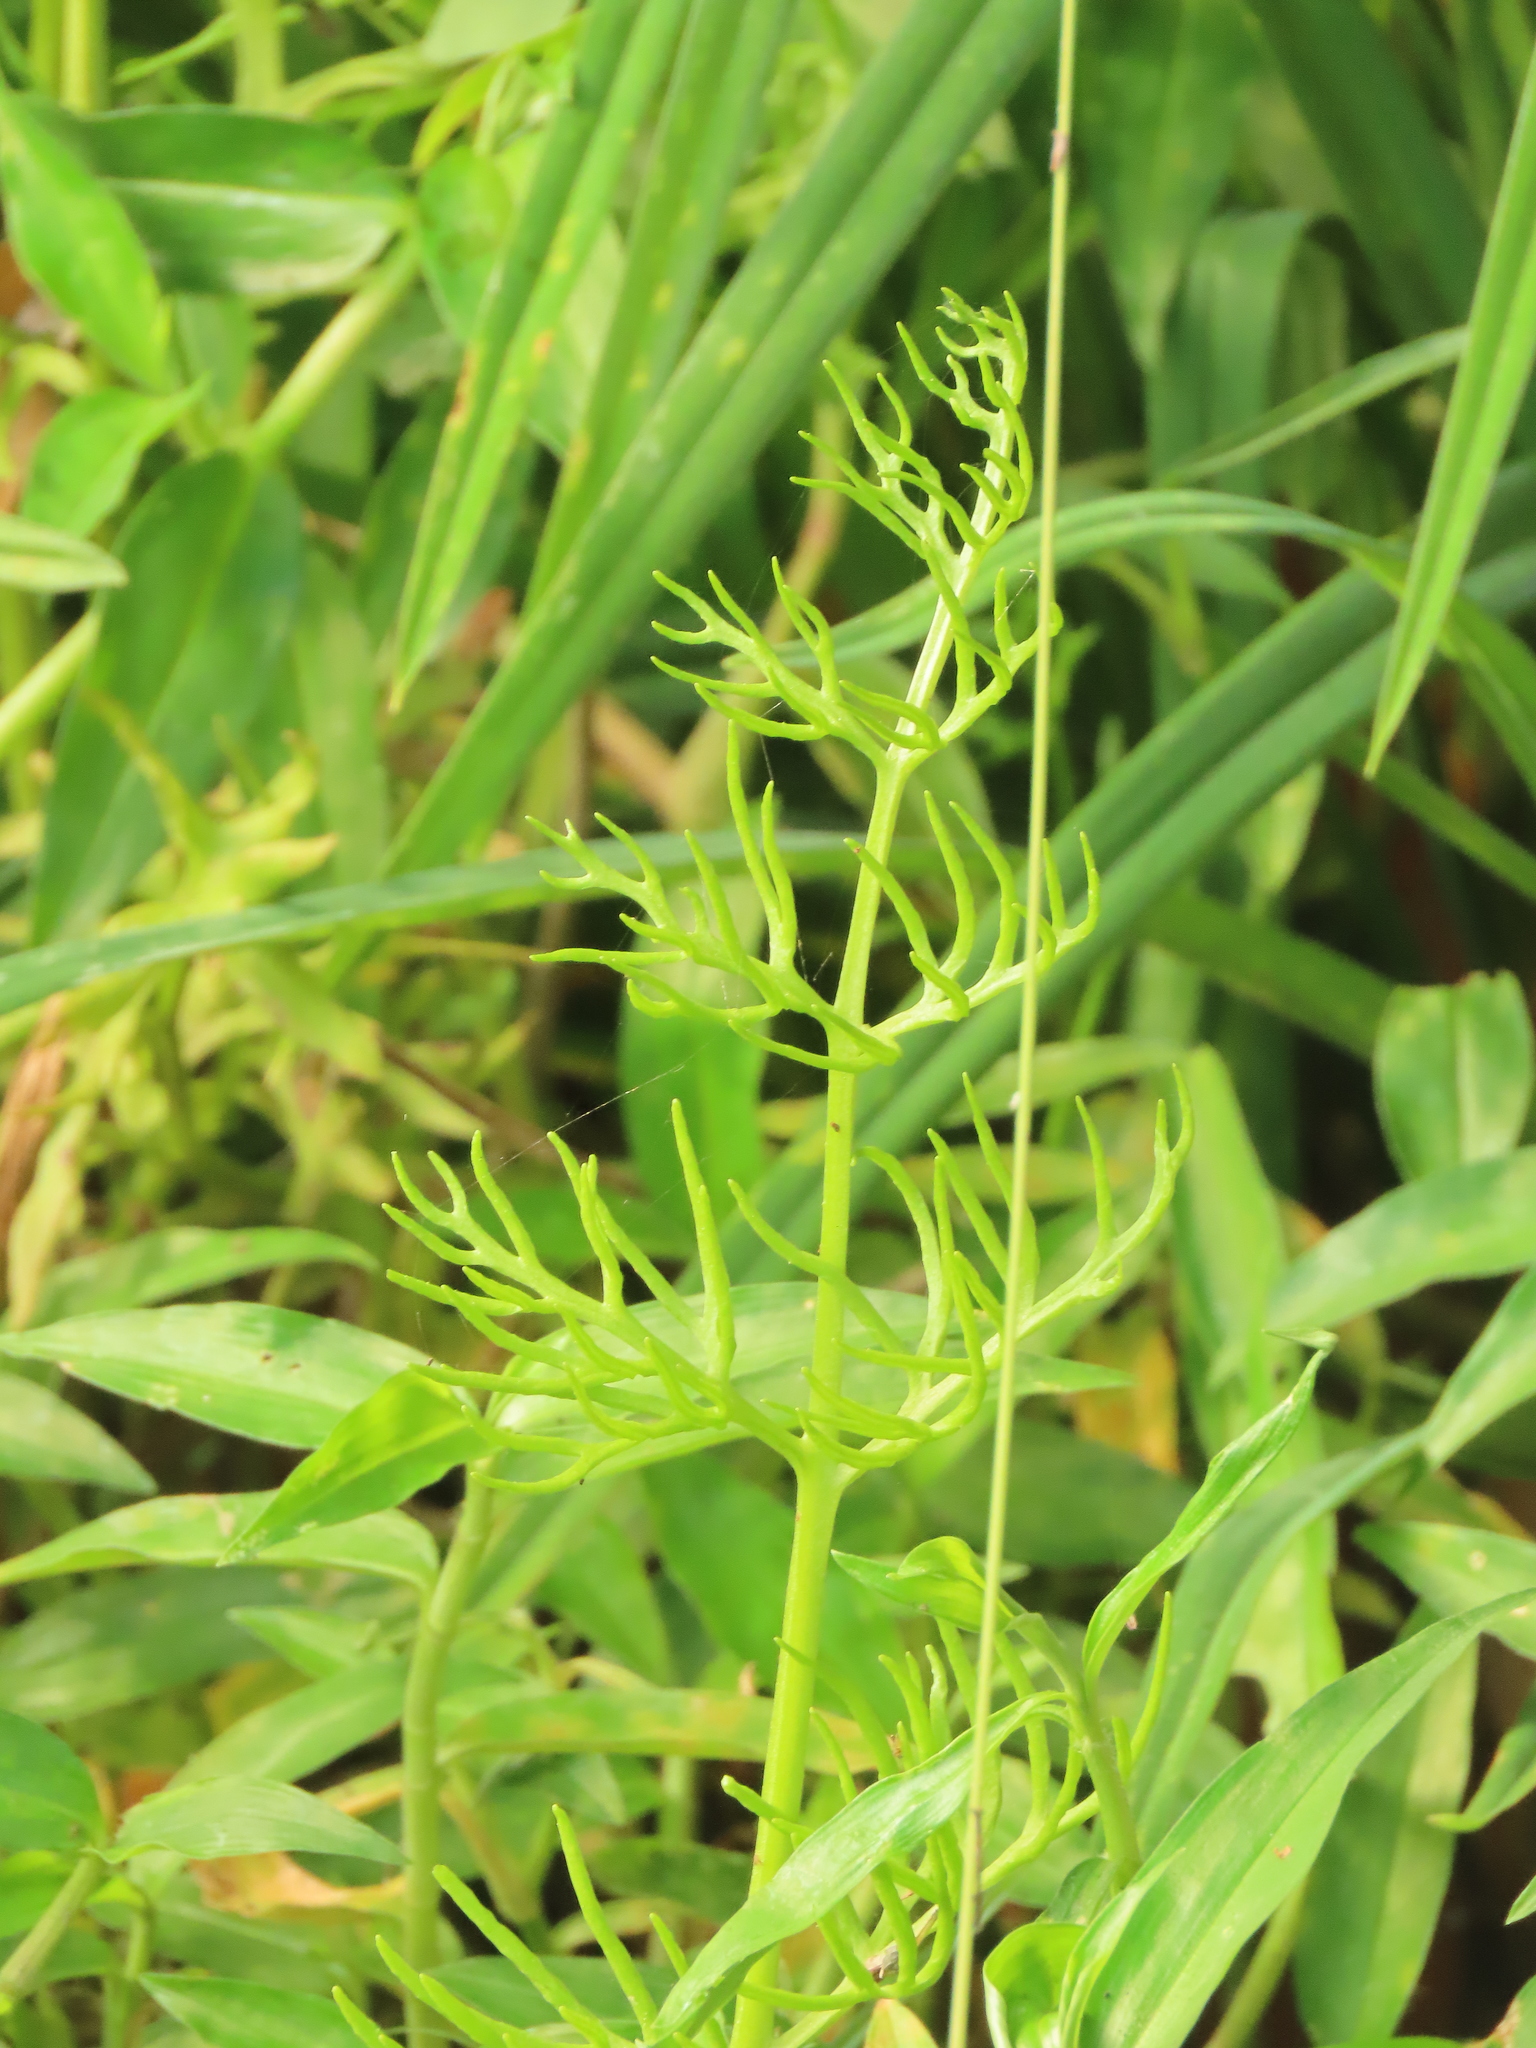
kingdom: Plantae
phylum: Tracheophyta
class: Polypodiopsida
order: Polypodiales
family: Pteridaceae
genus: Ceratopteris
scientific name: Ceratopteris thalictroides
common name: Water fern
